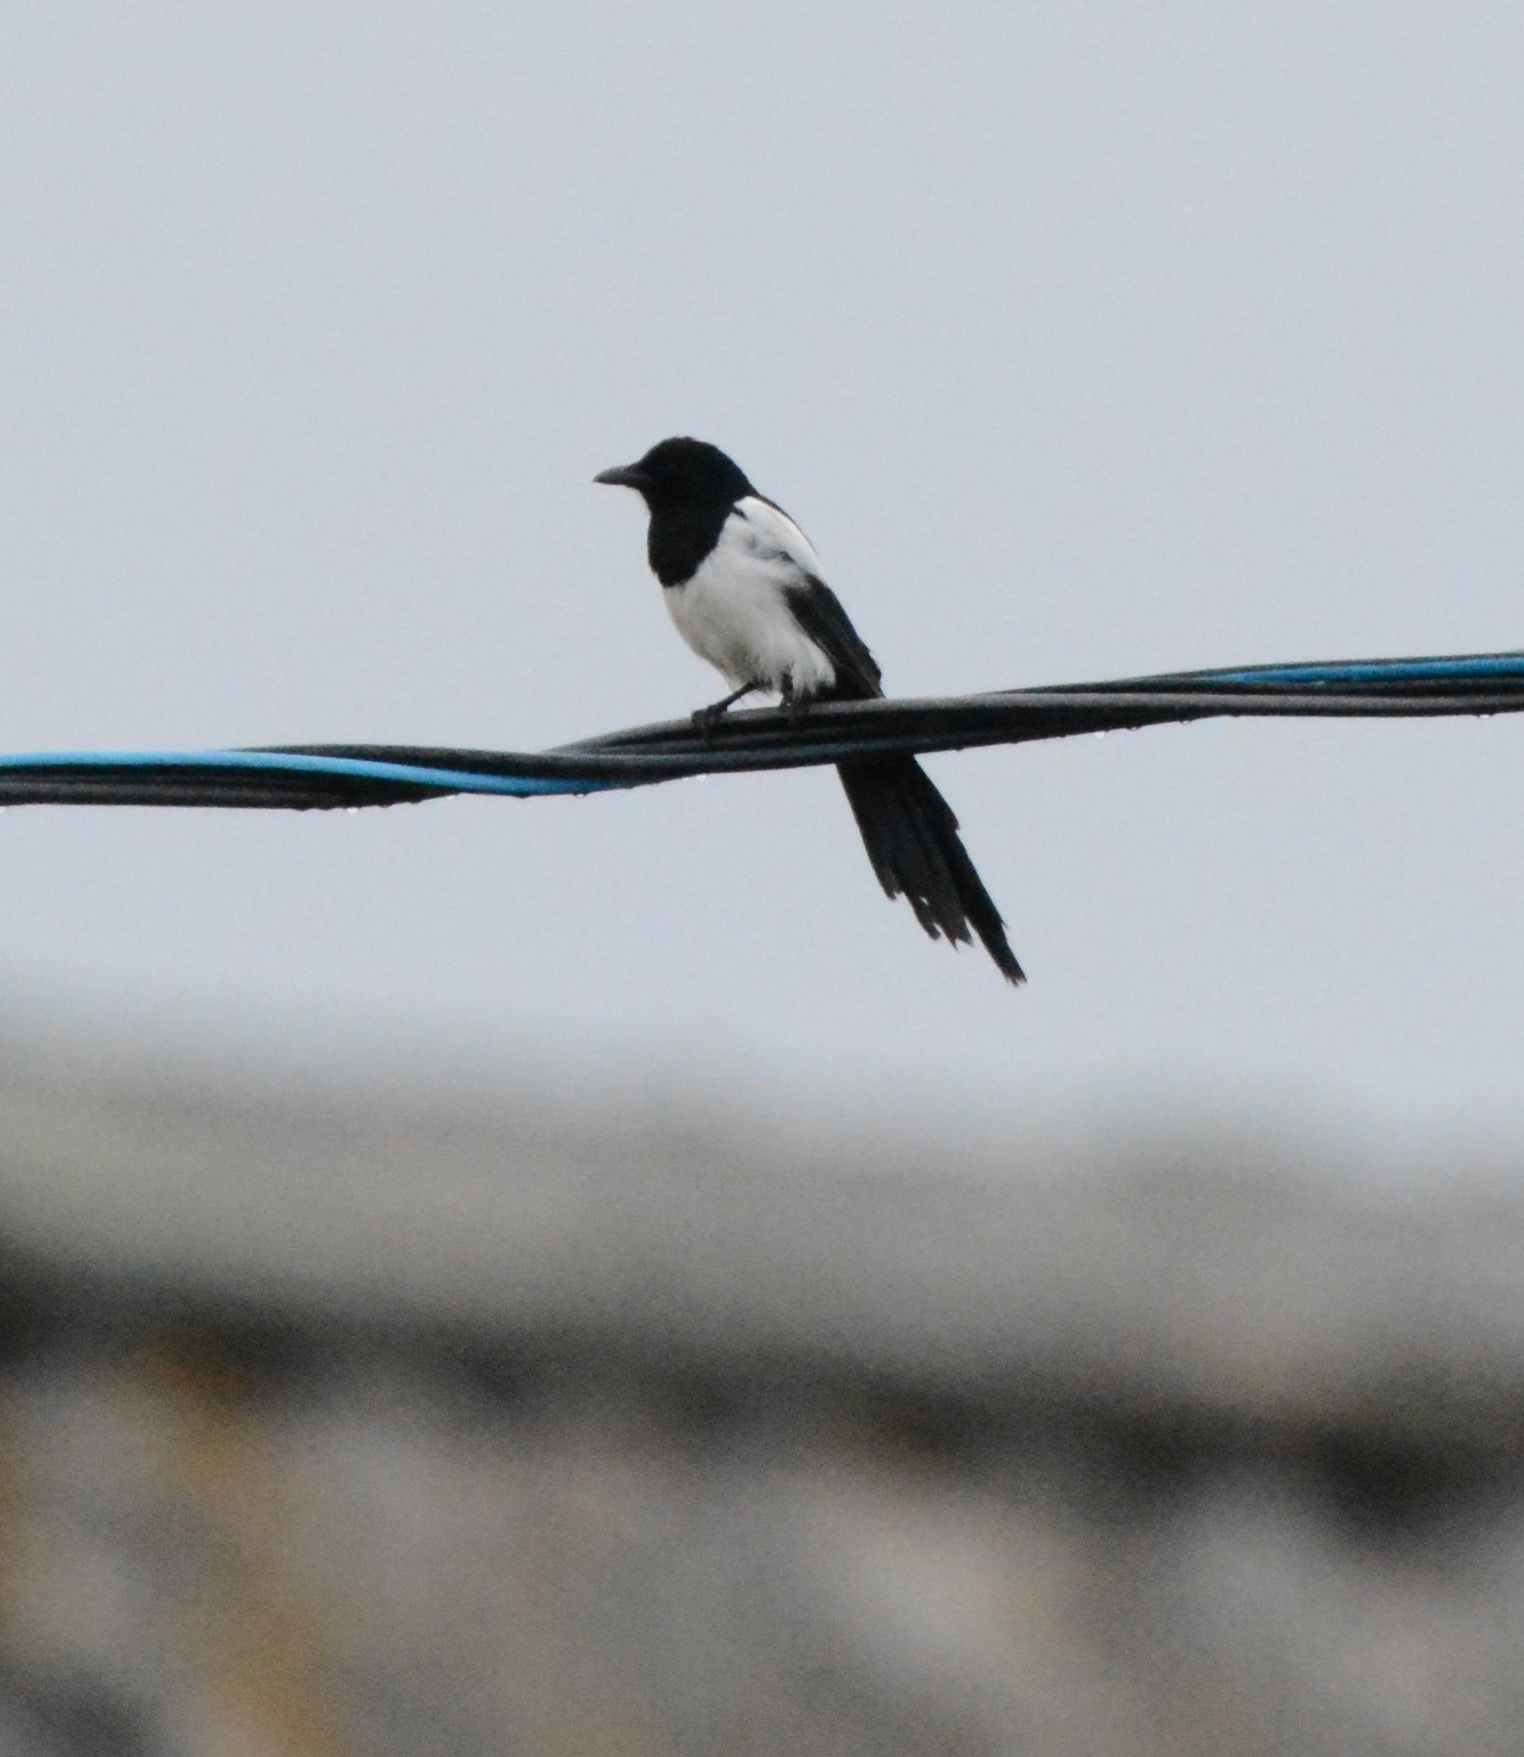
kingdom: Animalia
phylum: Chordata
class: Aves
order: Passeriformes
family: Corvidae
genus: Pica
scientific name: Pica pica
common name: Eurasian magpie
